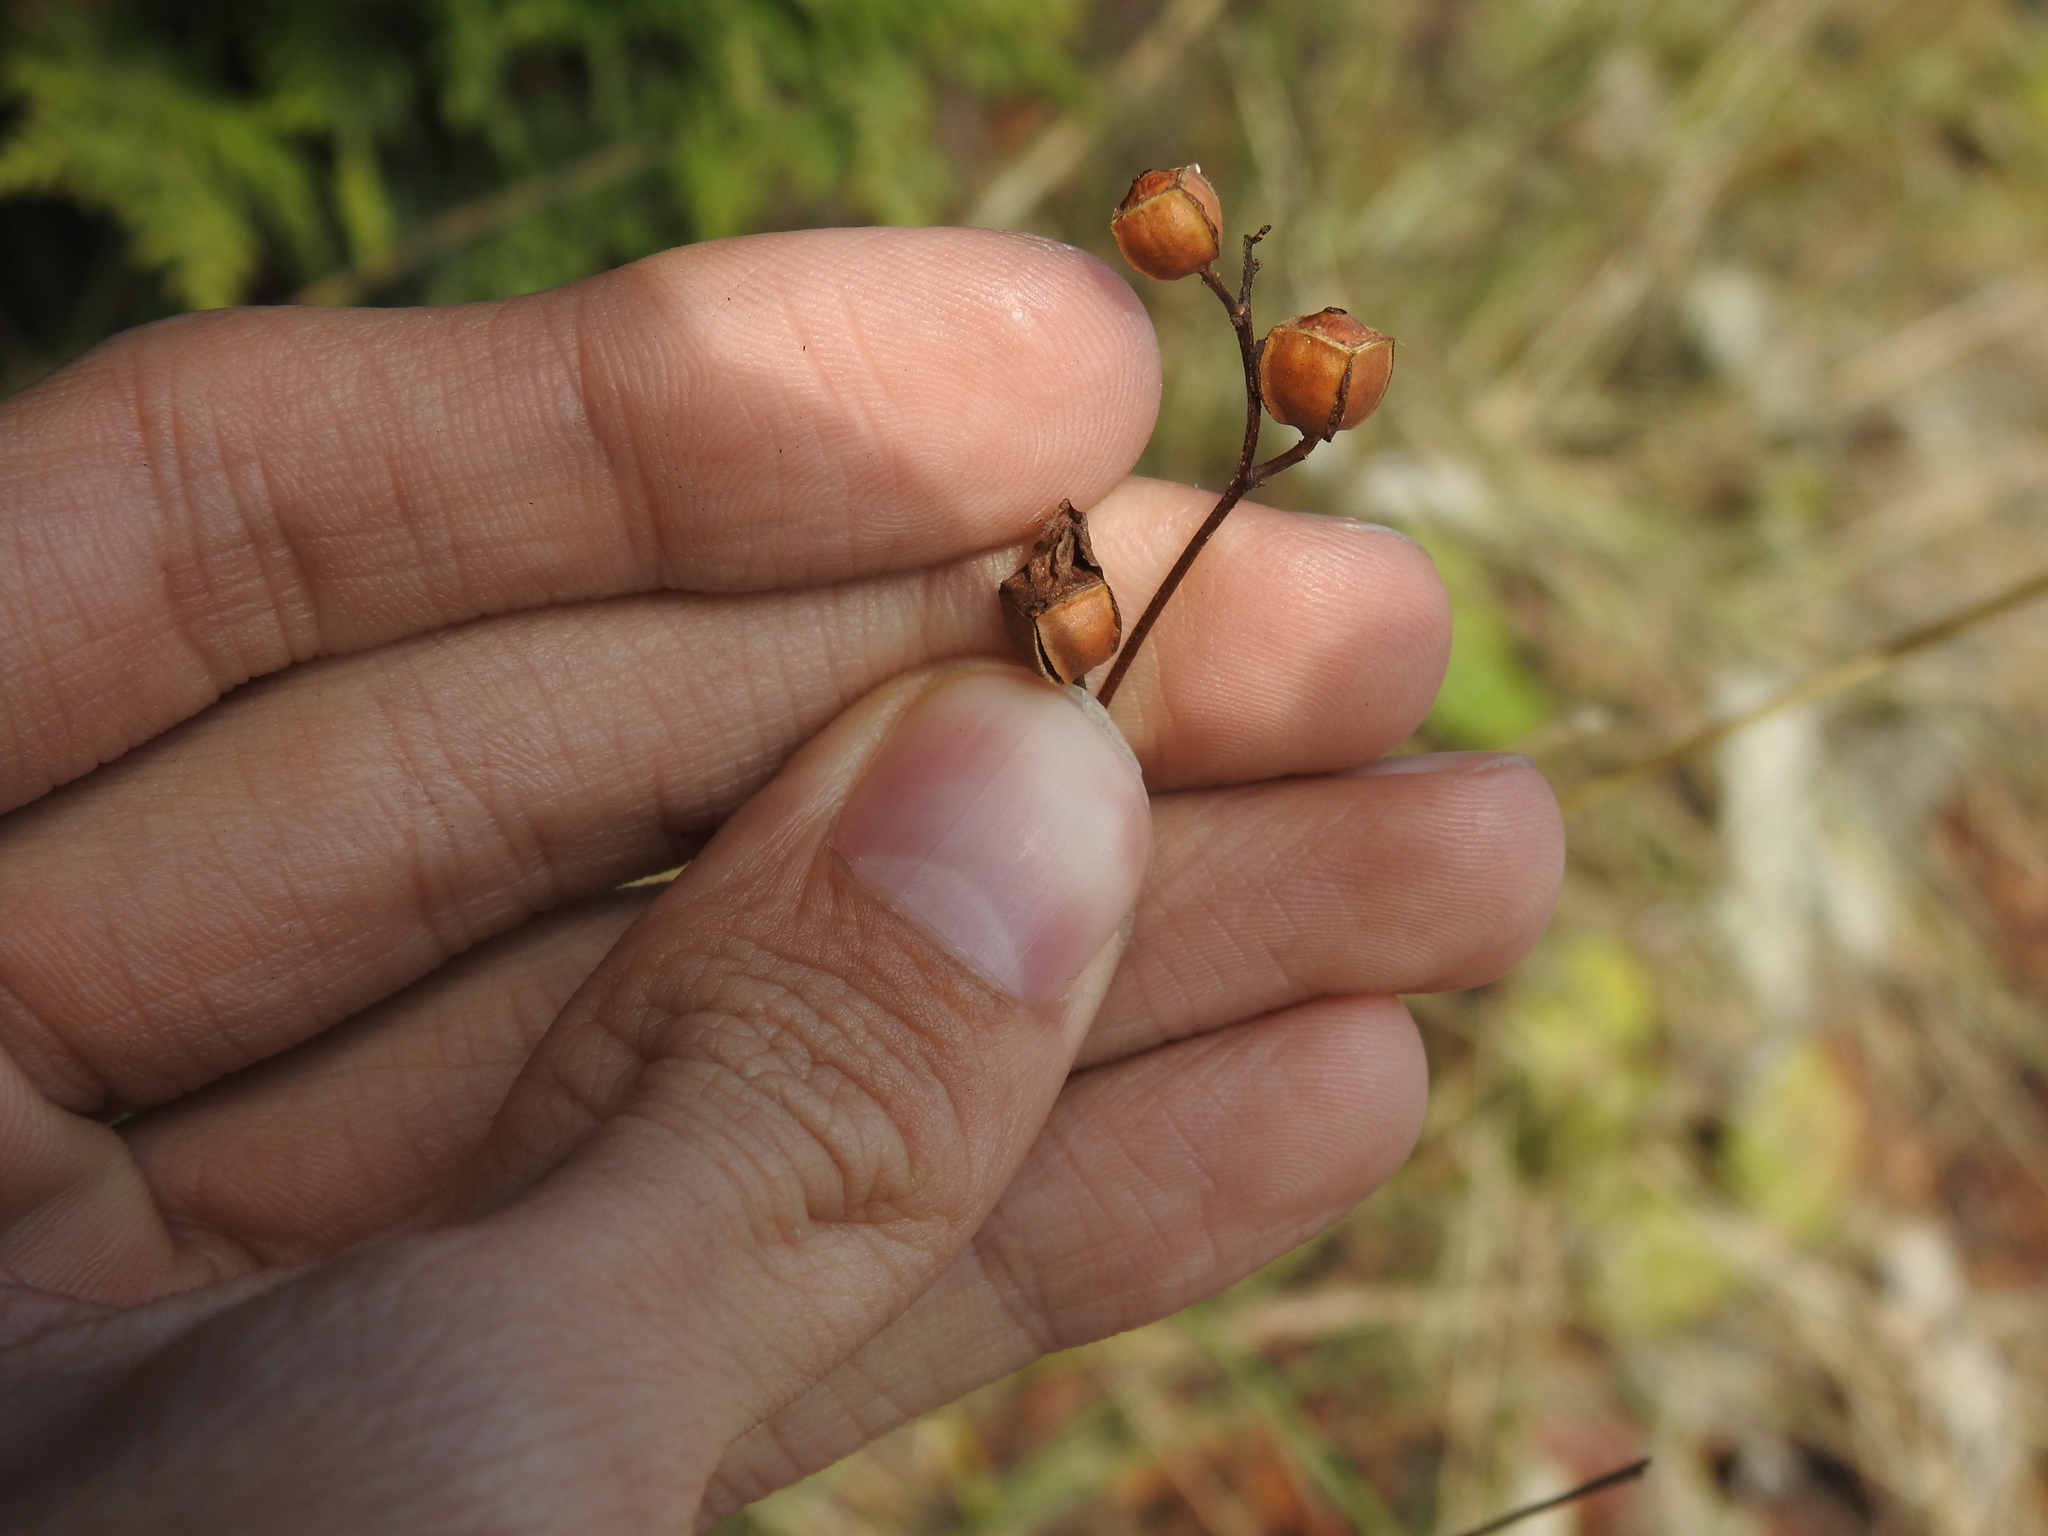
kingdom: Plantae
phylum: Tracheophyta
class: Magnoliopsida
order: Myrtales
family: Onagraceae
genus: Ludwigia
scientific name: Ludwigia alternifolia
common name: Rattlebox
